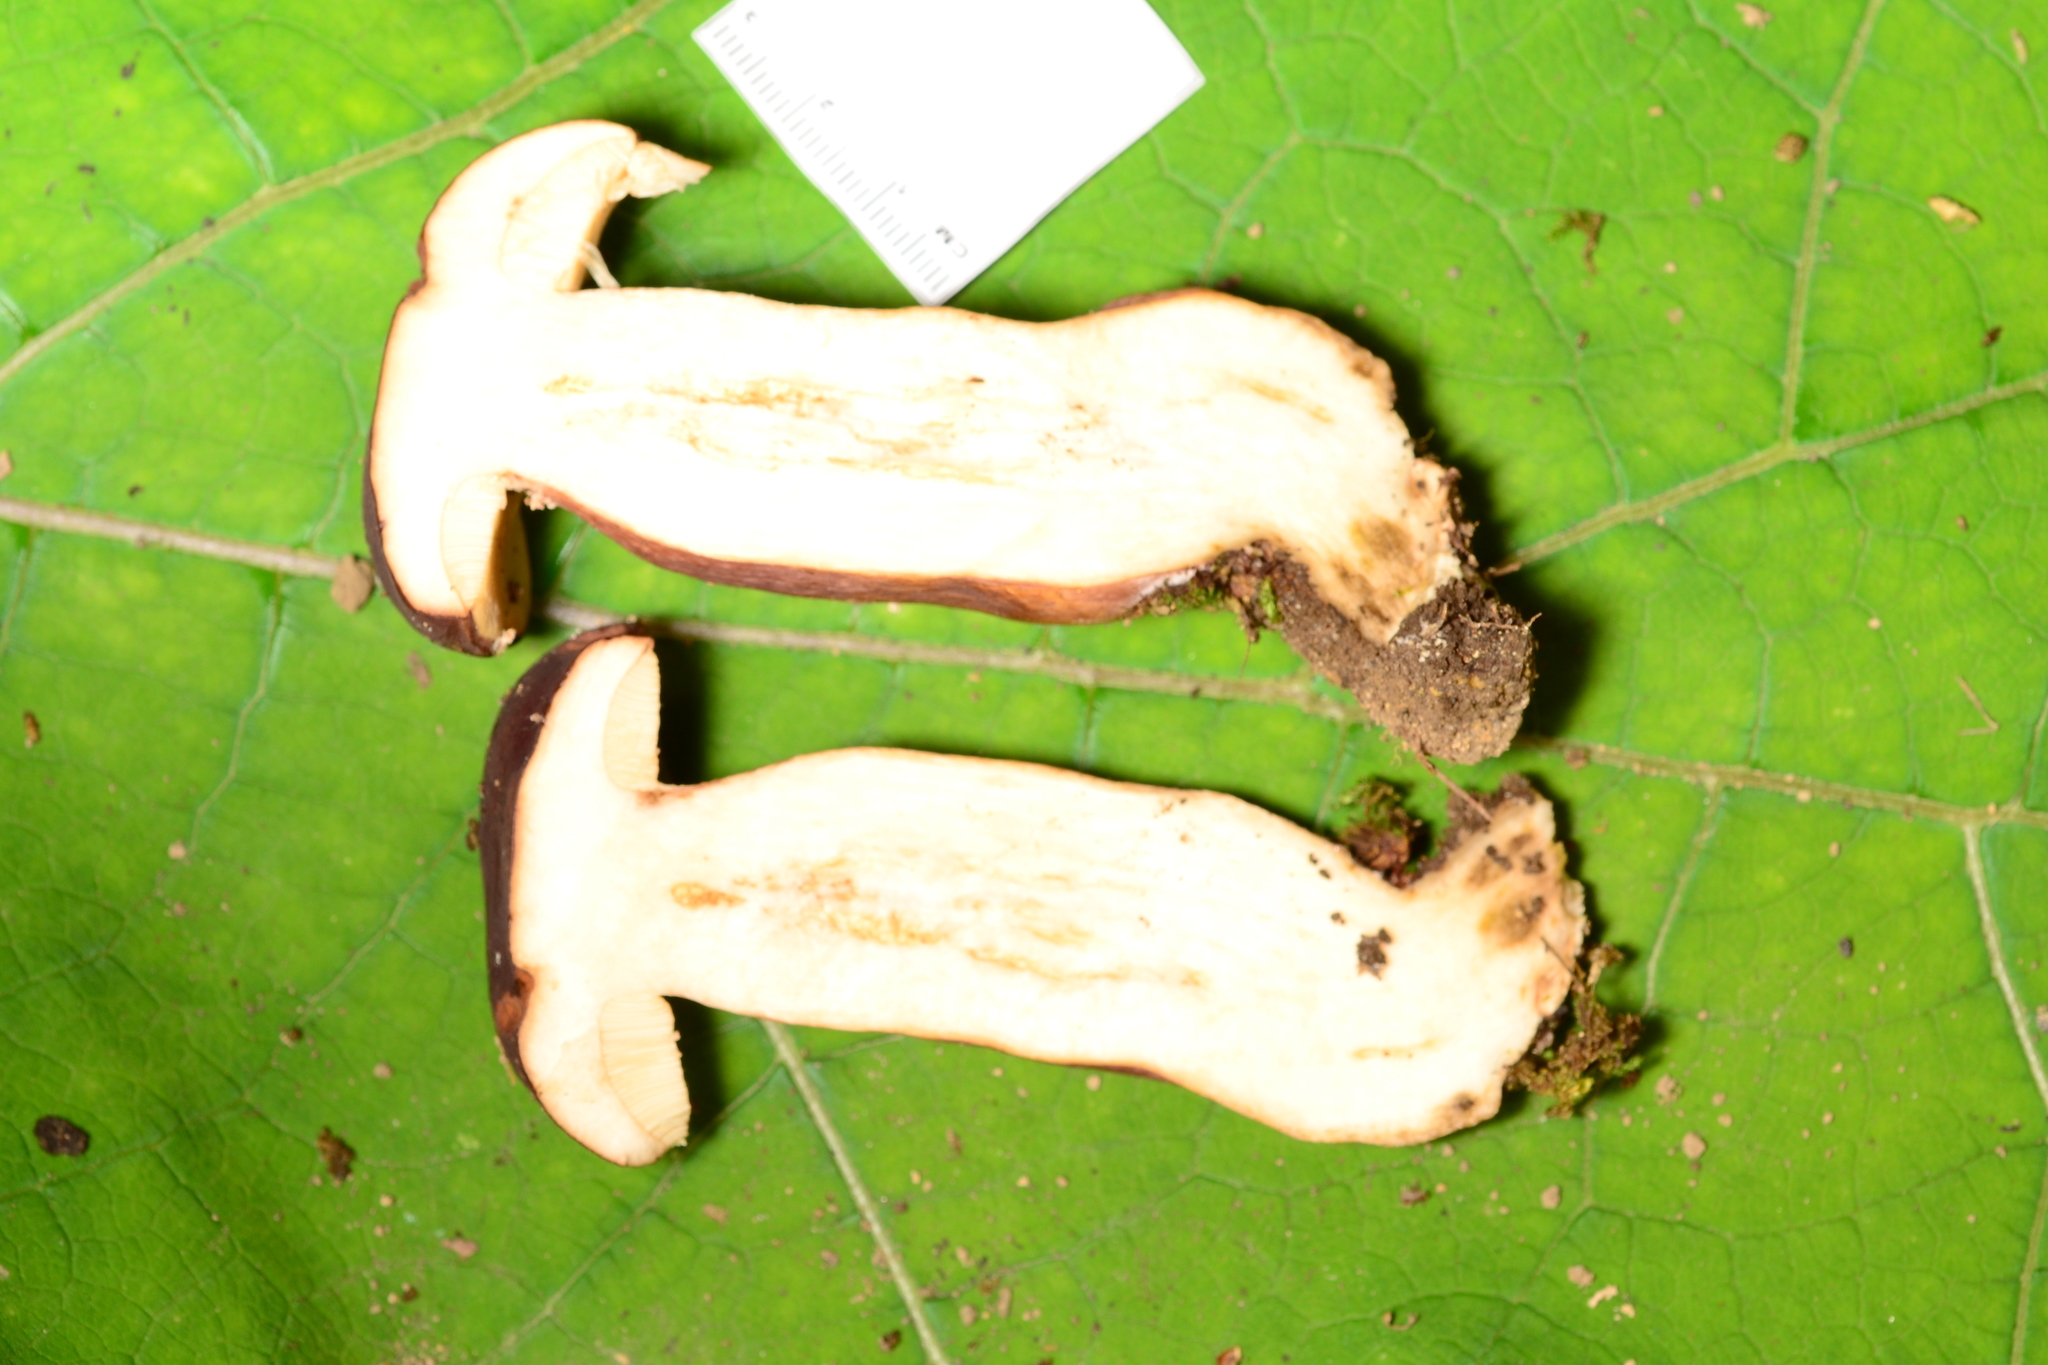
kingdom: Fungi
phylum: Basidiomycota
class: Agaricomycetes
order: Boletales
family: Boletaceae
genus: Tylopilus
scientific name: Tylopilus badiceps
